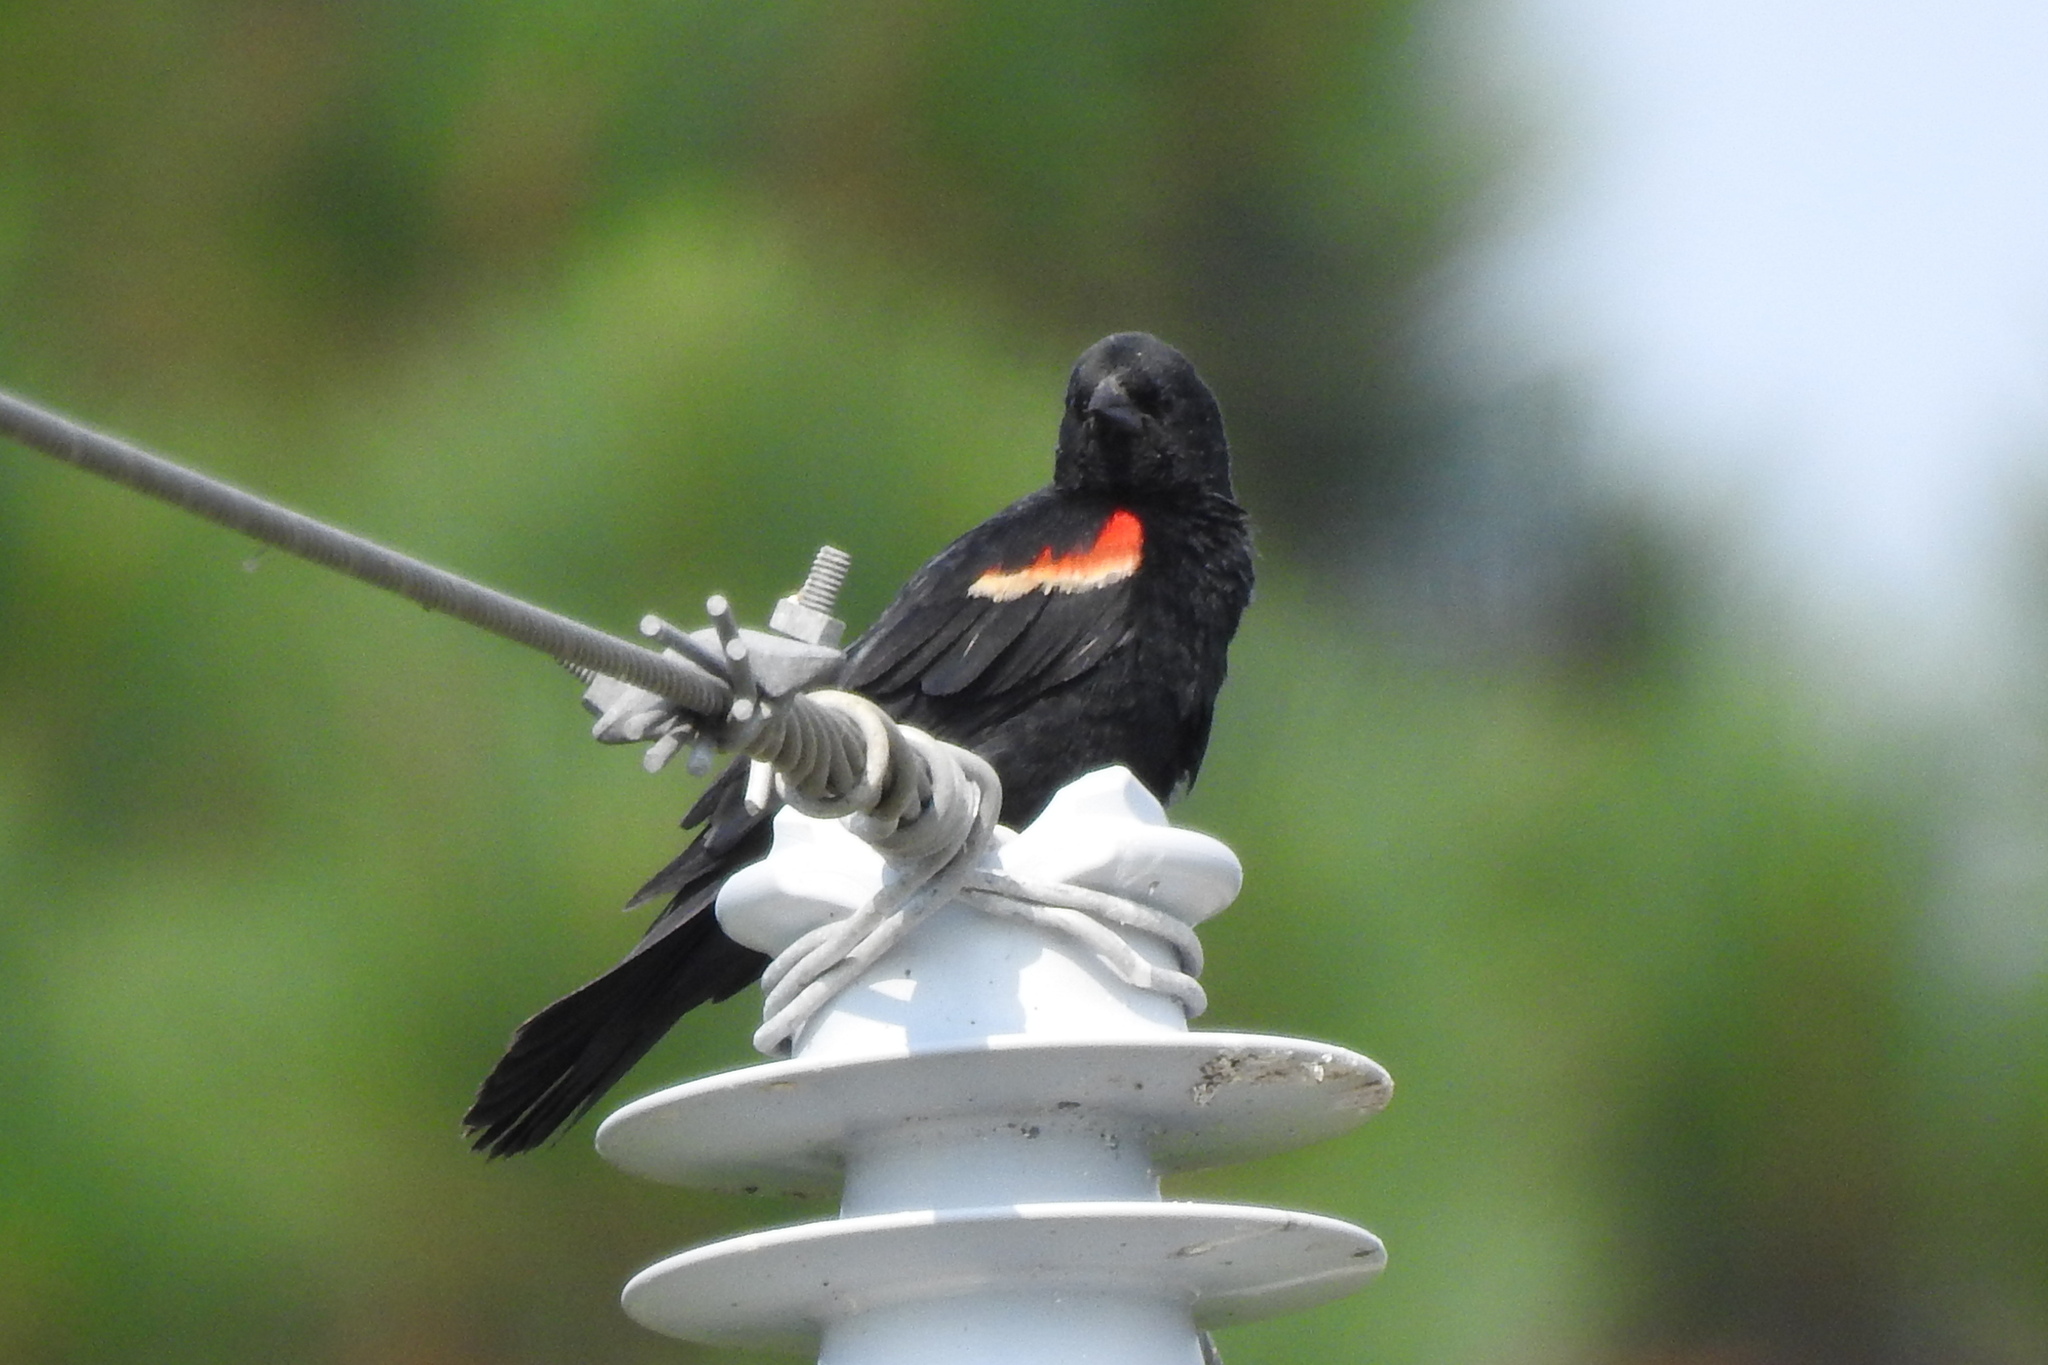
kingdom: Animalia
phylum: Chordata
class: Aves
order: Passeriformes
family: Icteridae
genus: Agelaius
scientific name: Agelaius phoeniceus
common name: Red-winged blackbird
